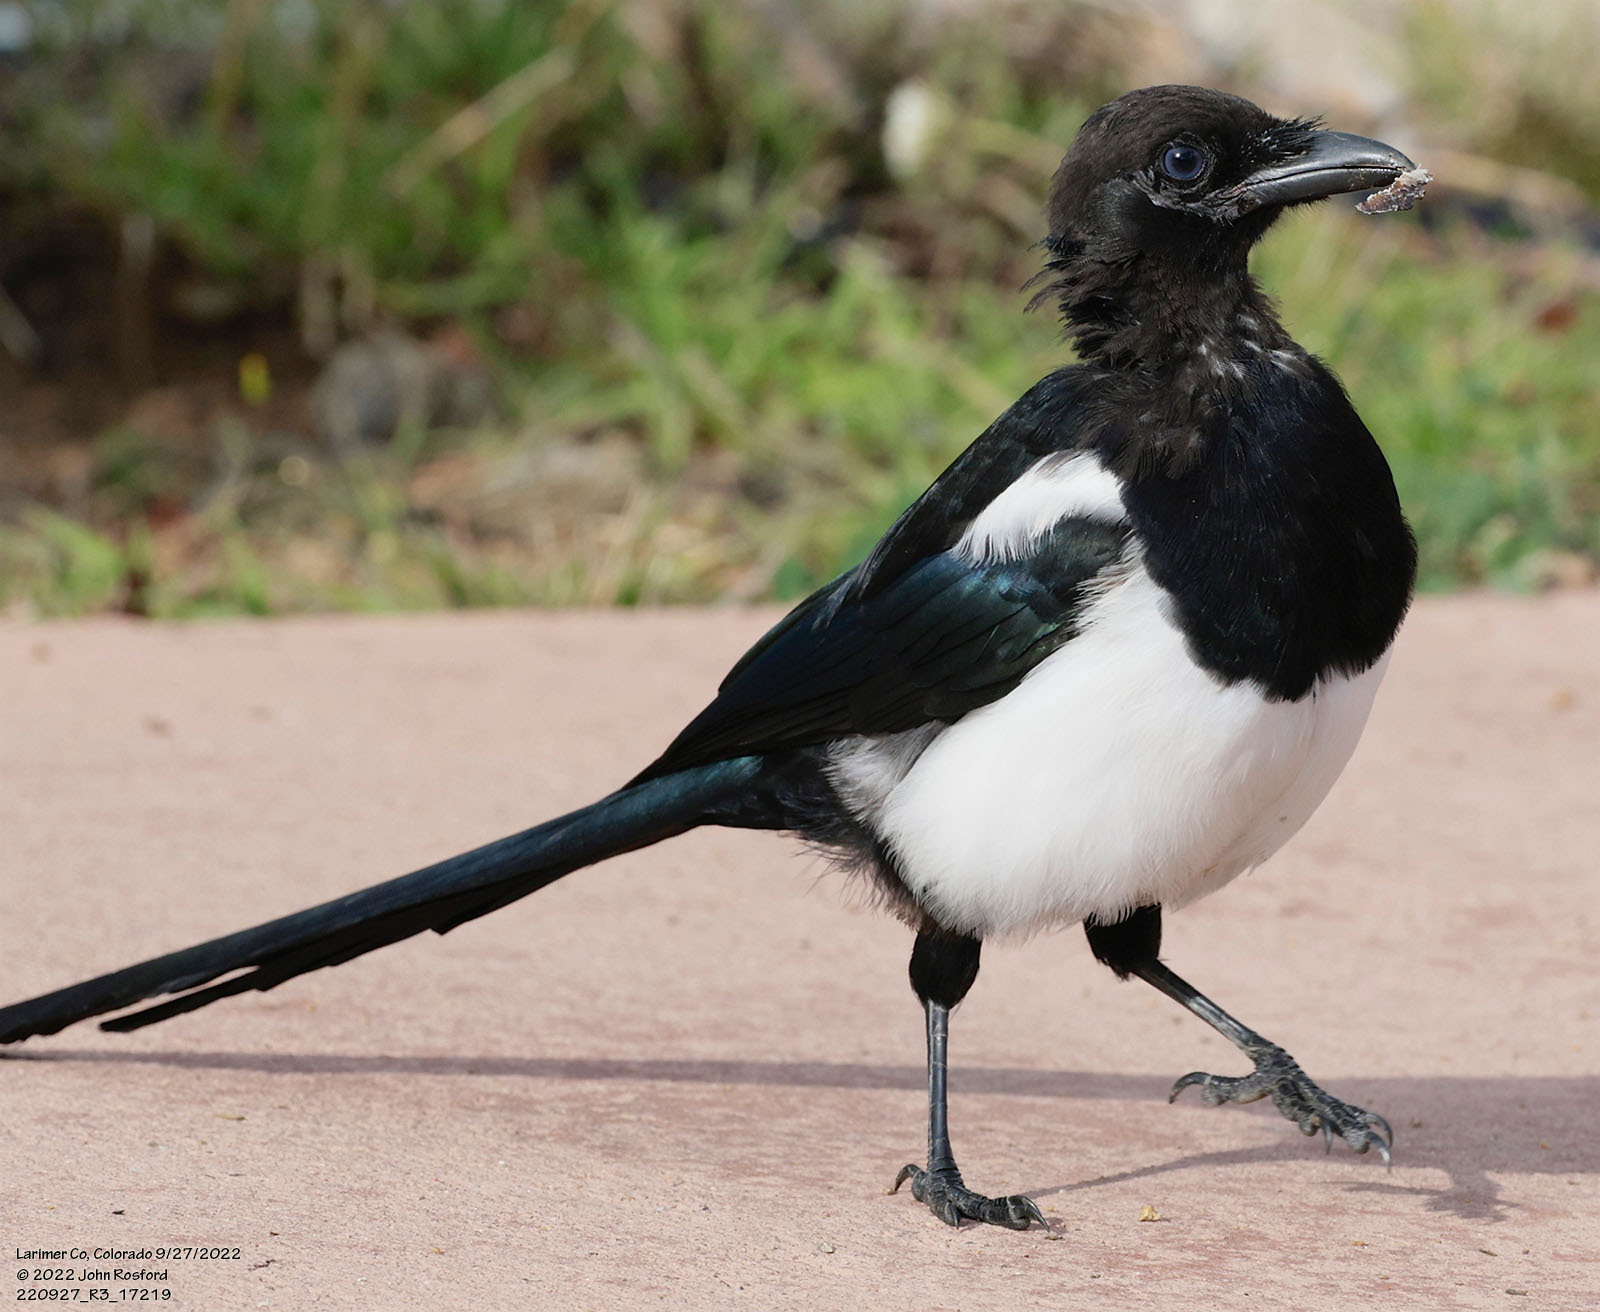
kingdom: Animalia
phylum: Chordata
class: Aves
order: Passeriformes
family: Corvidae
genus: Pica
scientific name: Pica hudsonia
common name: Black-billed magpie
